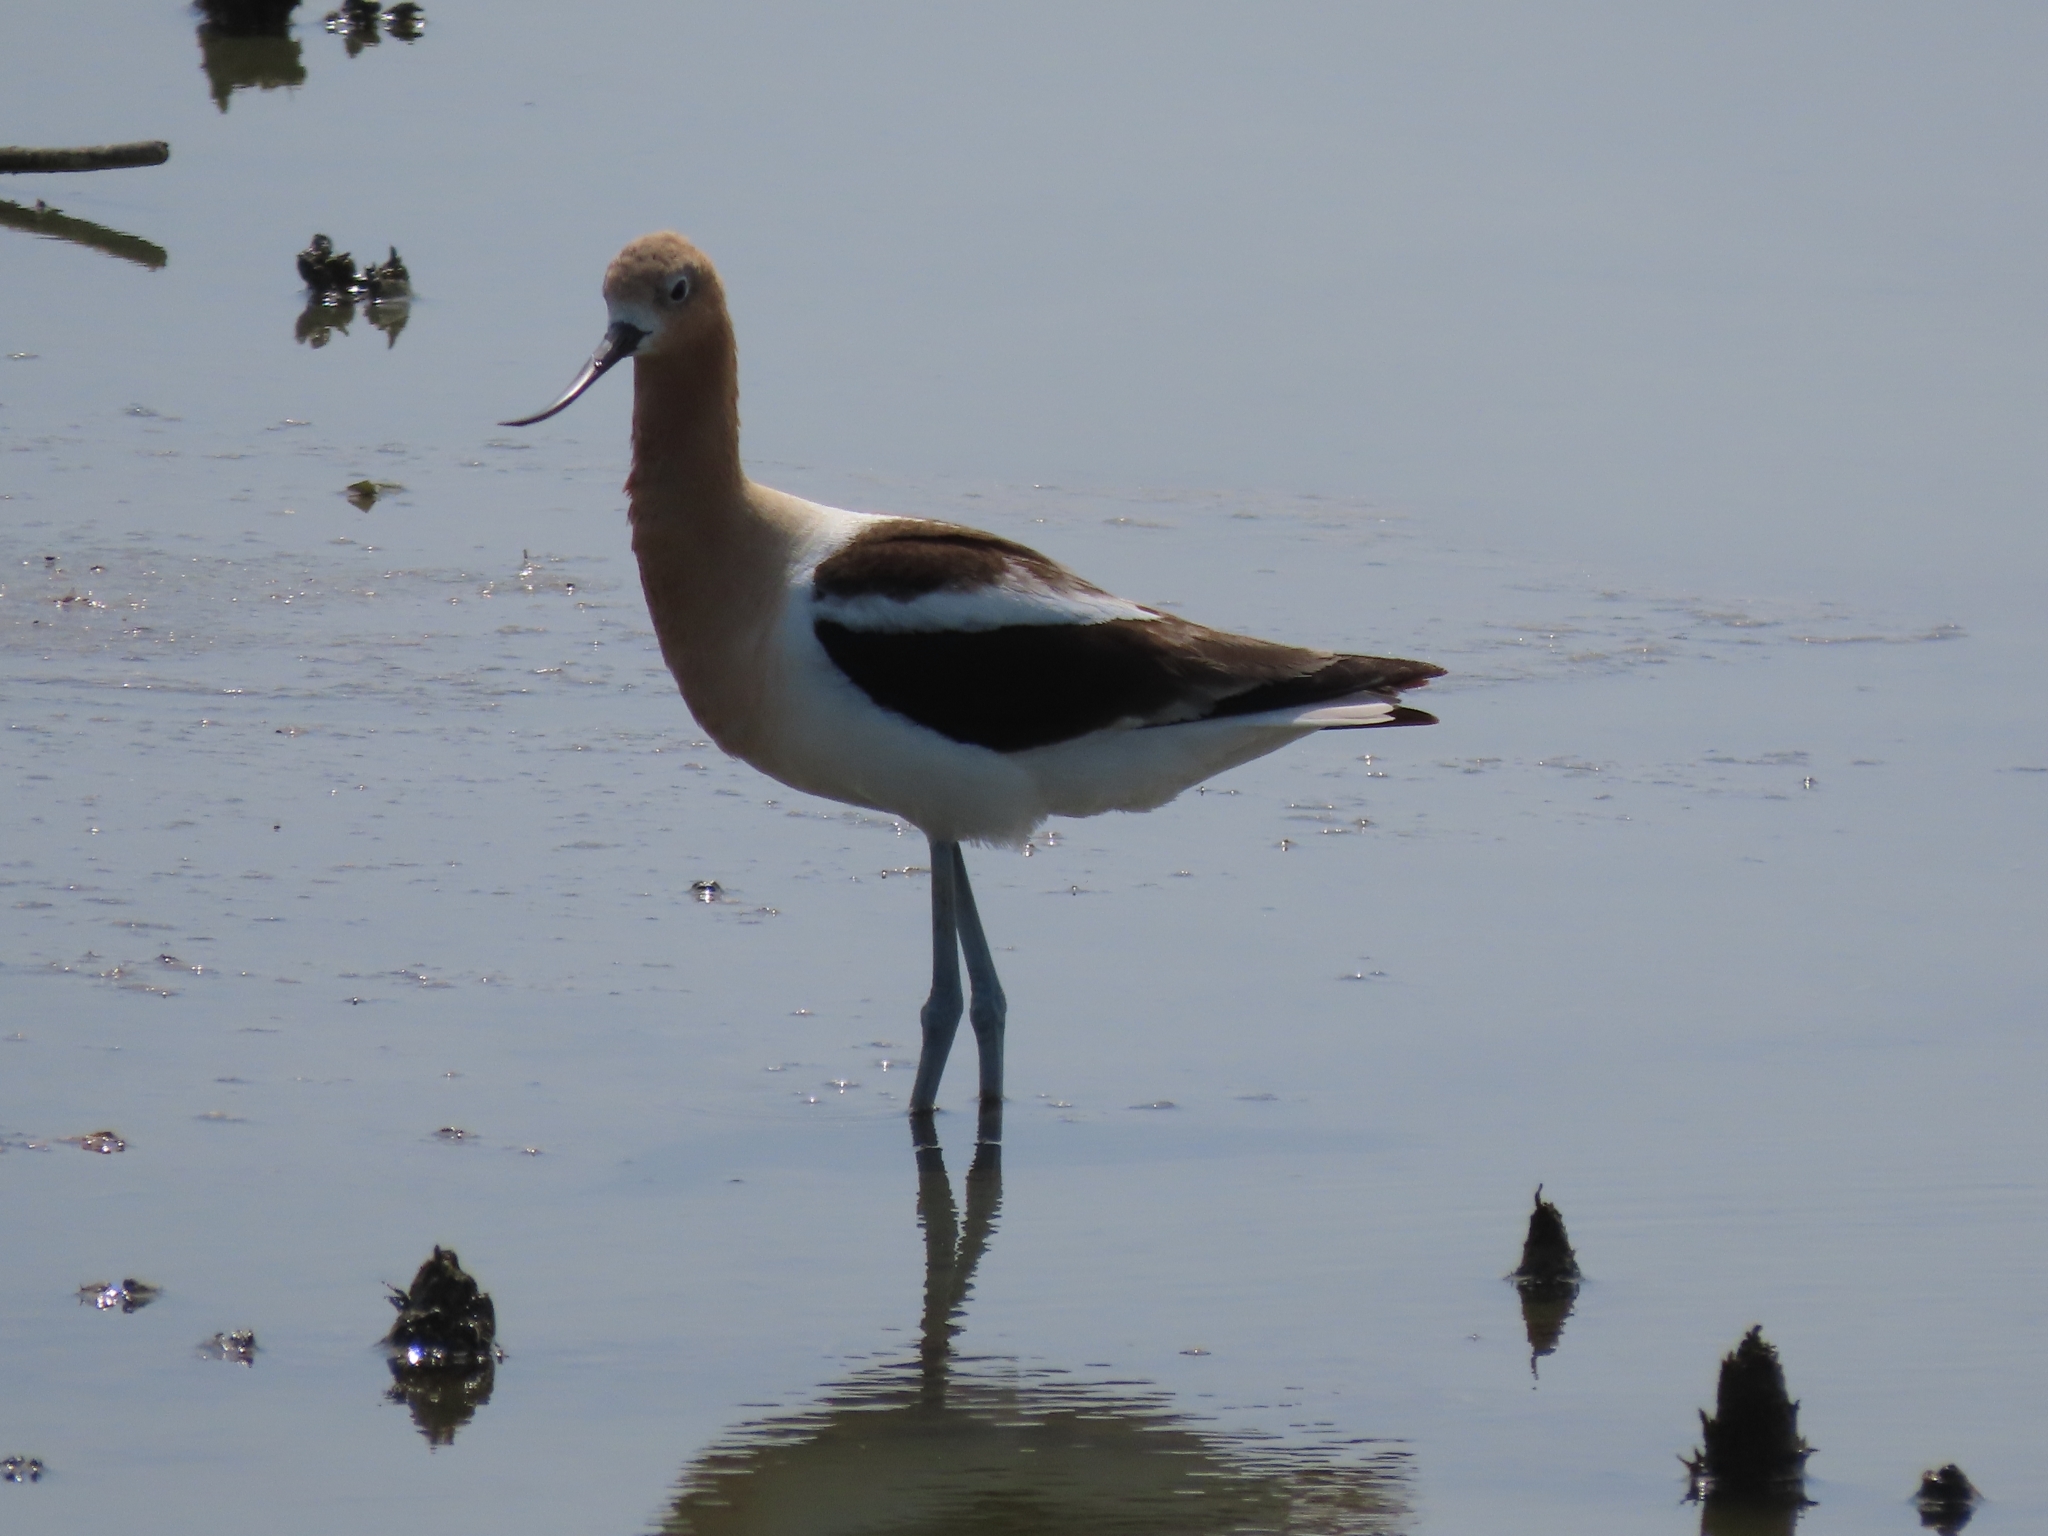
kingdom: Animalia
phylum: Chordata
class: Aves
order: Charadriiformes
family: Recurvirostridae
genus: Recurvirostra
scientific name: Recurvirostra americana
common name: American avocet
